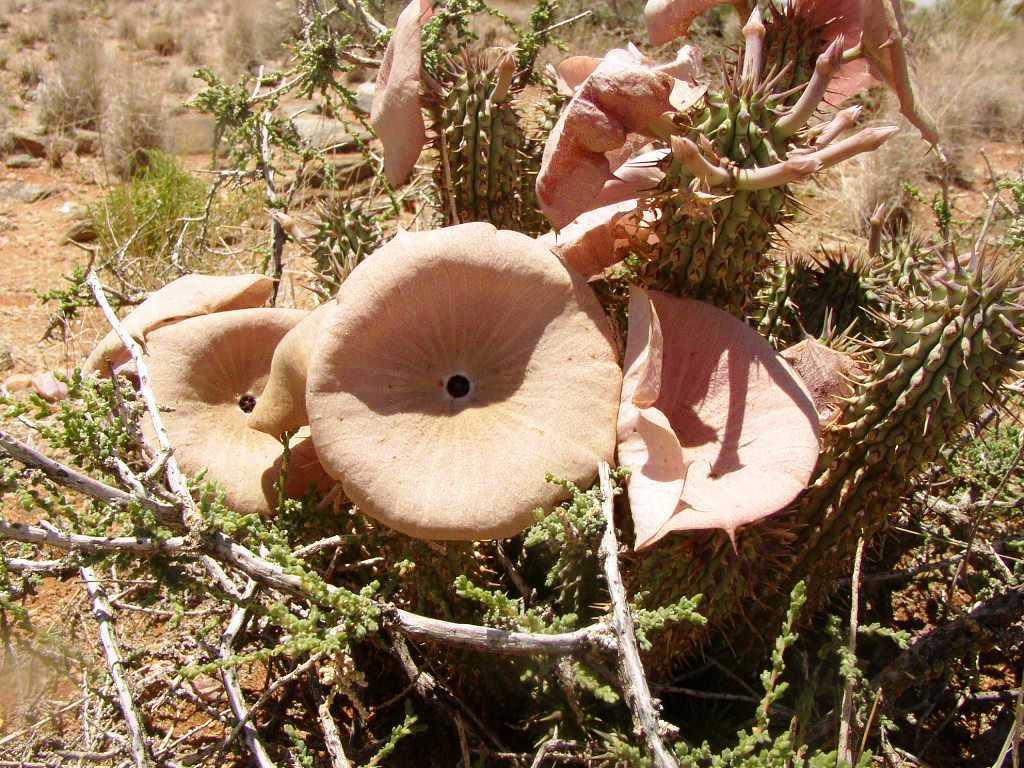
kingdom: Plantae
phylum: Tracheophyta
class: Magnoliopsida
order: Gentianales
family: Apocynaceae
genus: Hoodia
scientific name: Hoodia gordonii
